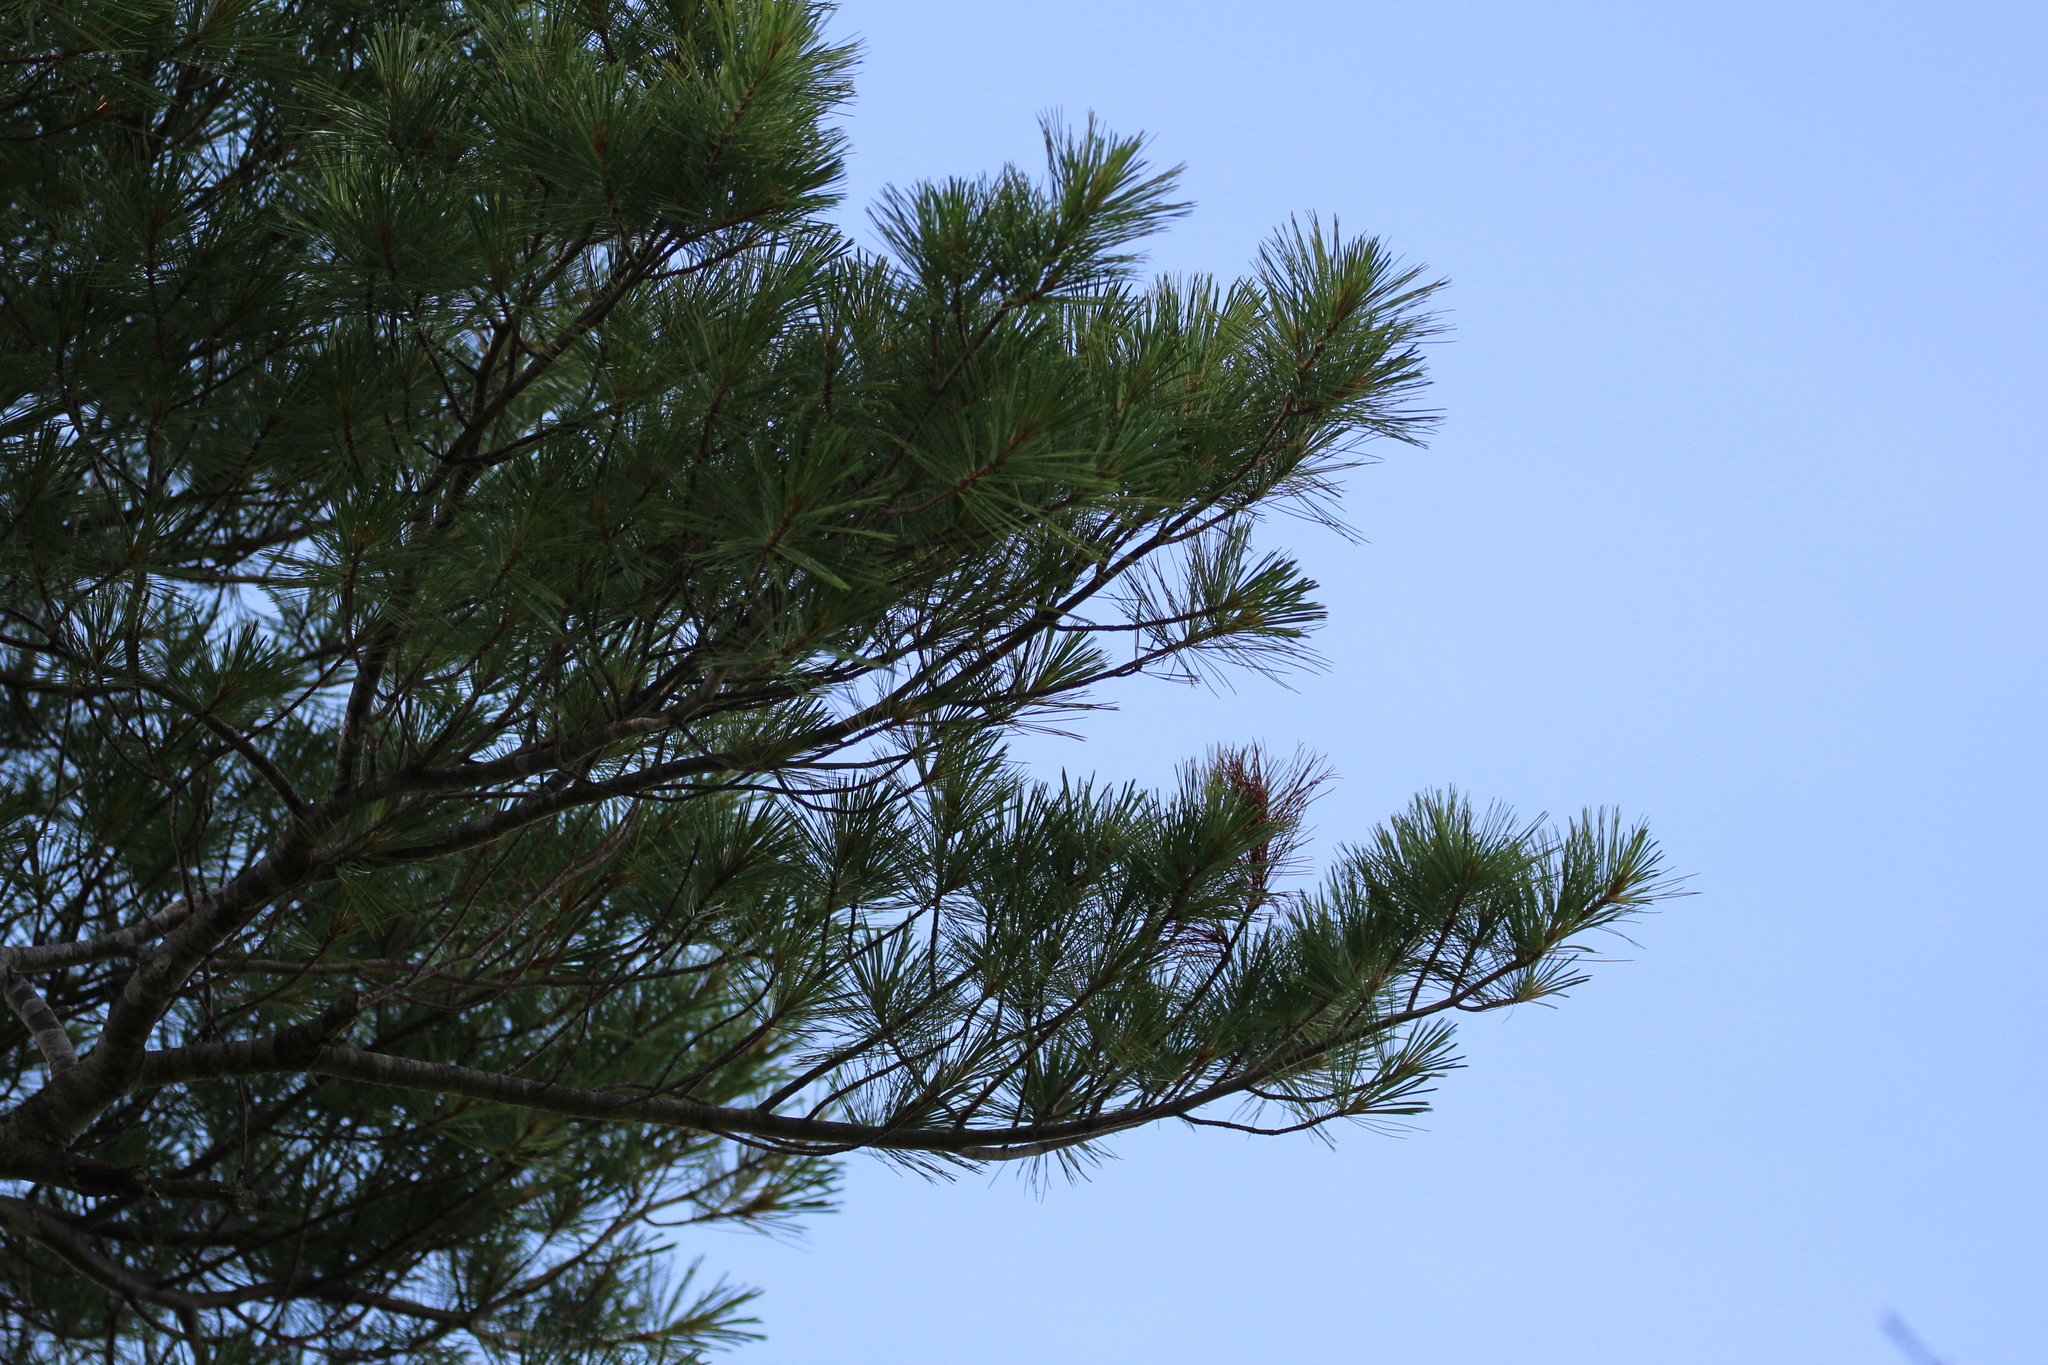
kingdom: Plantae
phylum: Tracheophyta
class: Pinopsida
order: Pinales
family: Pinaceae
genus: Pinus
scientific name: Pinus strobus
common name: Weymouth pine
